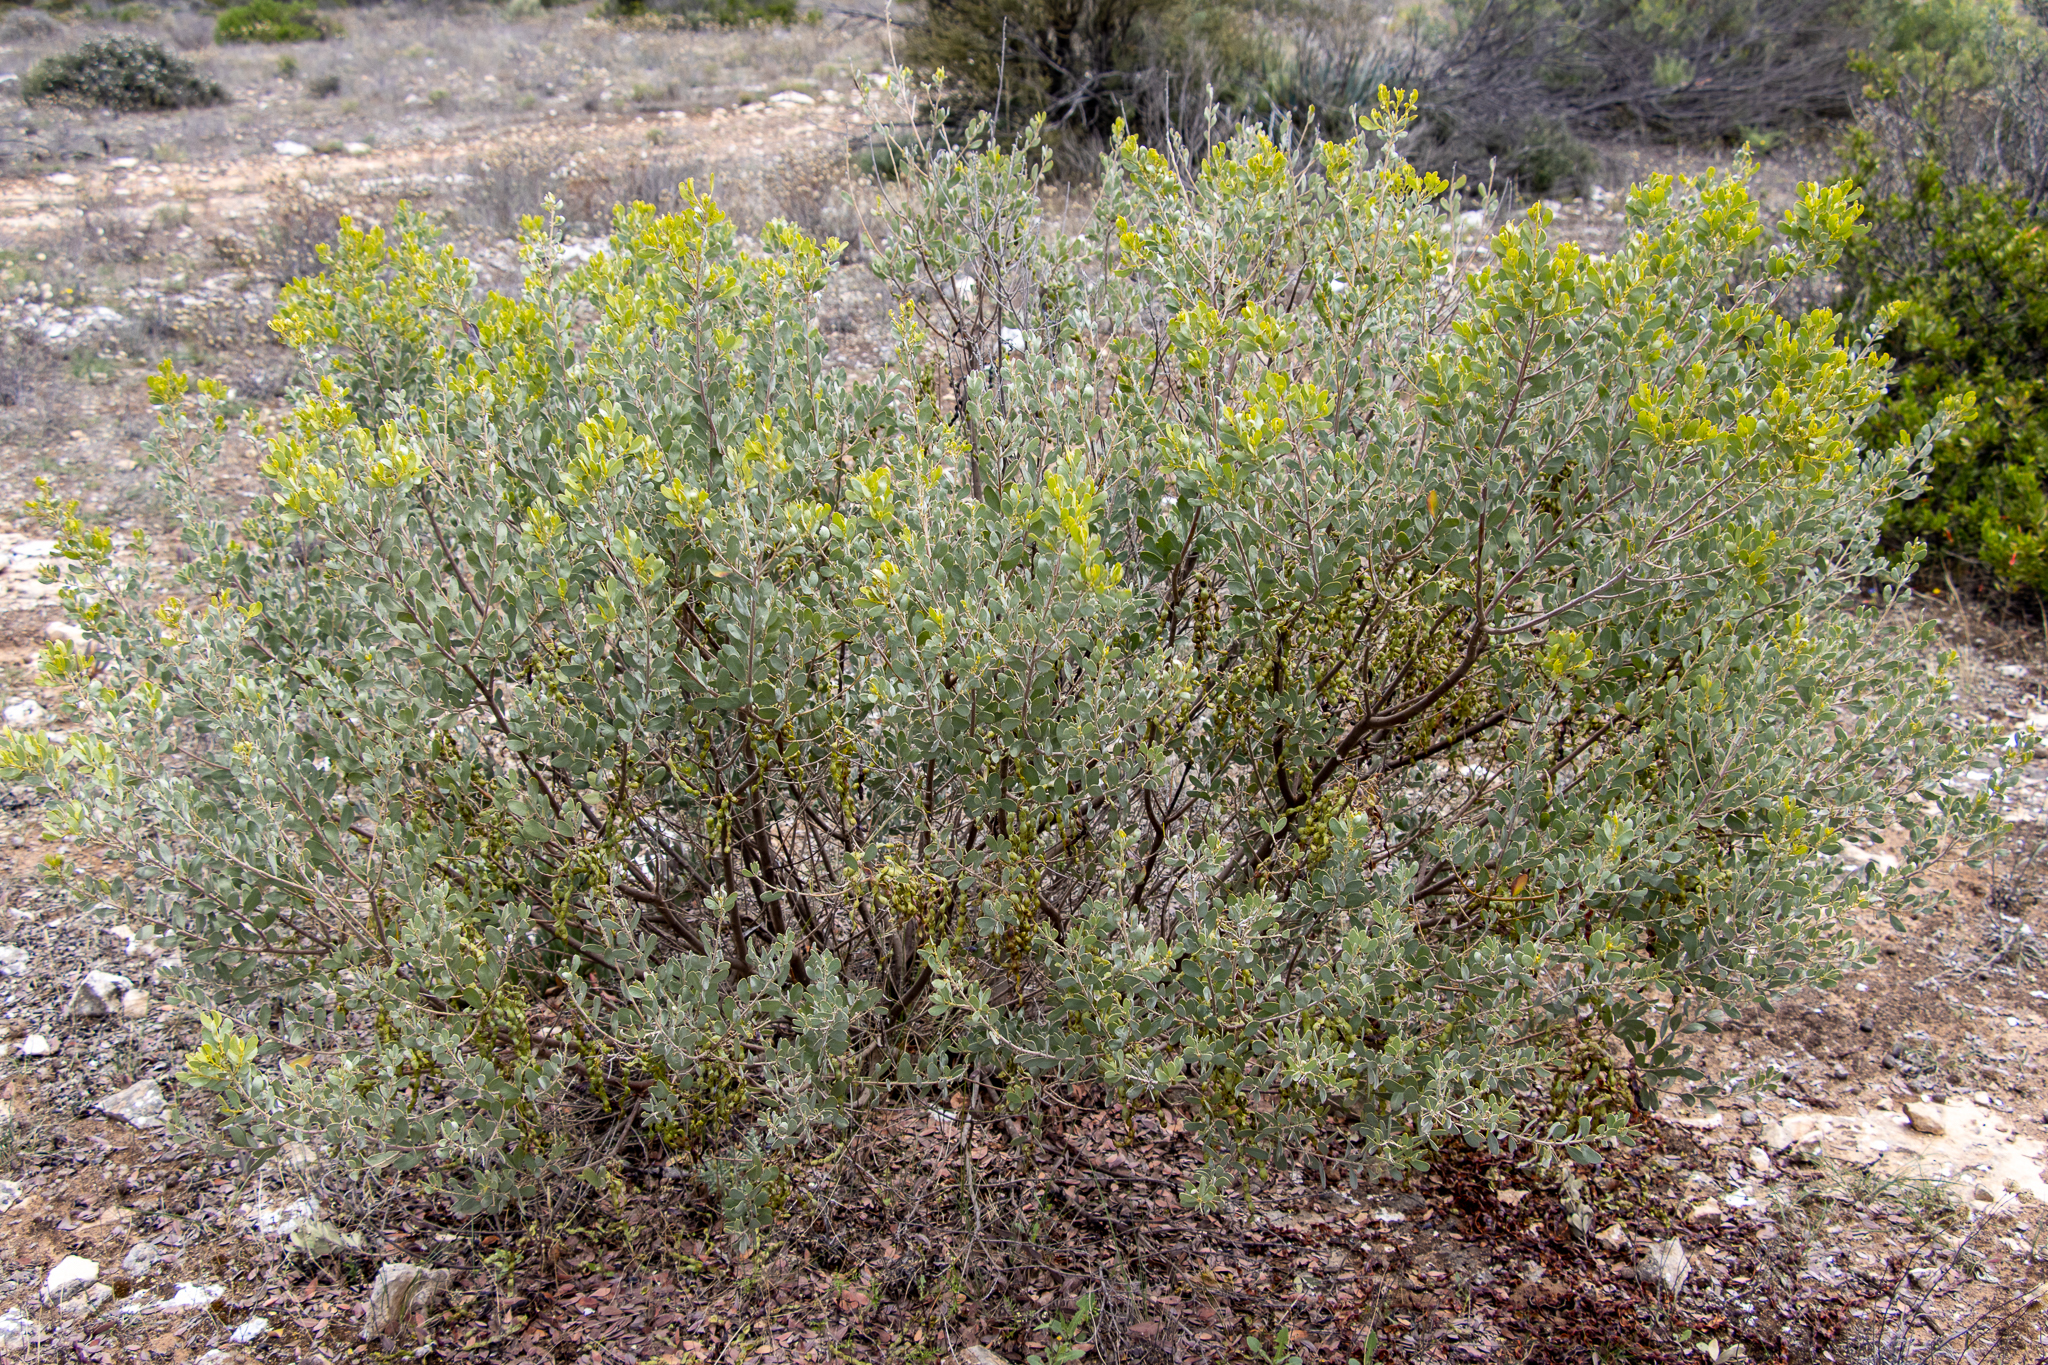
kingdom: Plantae
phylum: Tracheophyta
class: Magnoliopsida
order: Fabales
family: Fabaceae
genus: Acacia
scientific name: Acacia brachybotrya
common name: Grey mulga
